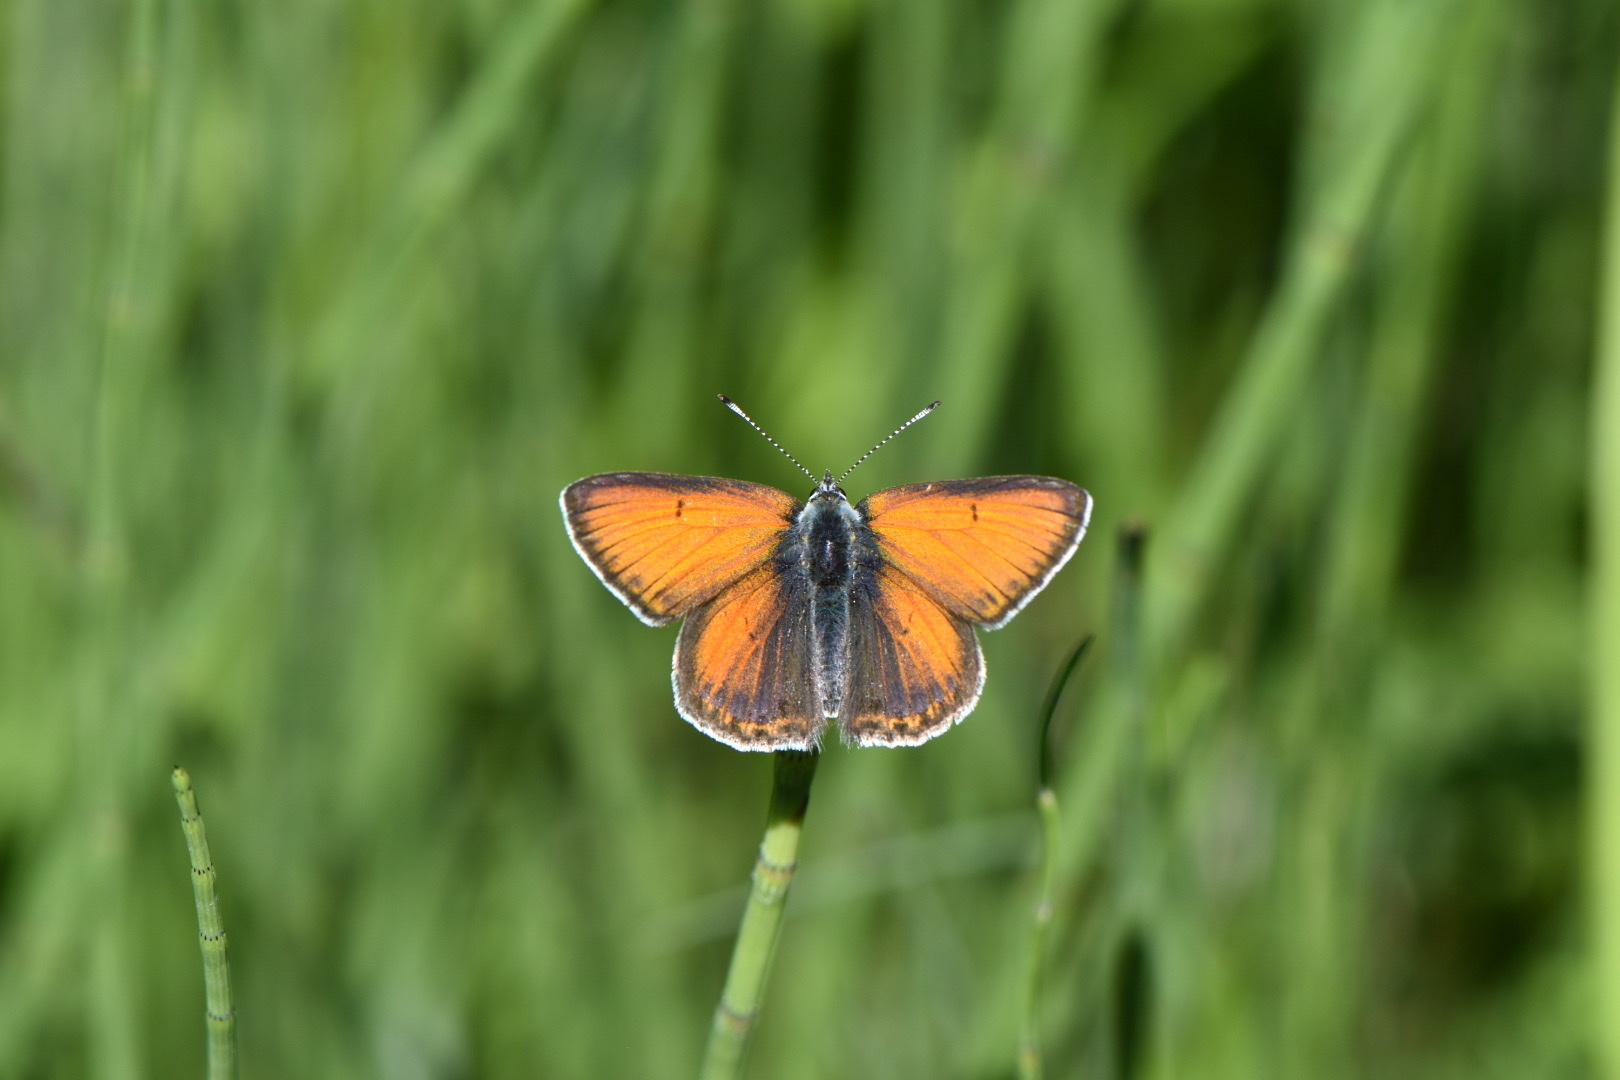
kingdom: Animalia
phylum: Arthropoda
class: Insecta
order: Lepidoptera
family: Lycaenidae
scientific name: Lycaenidae
